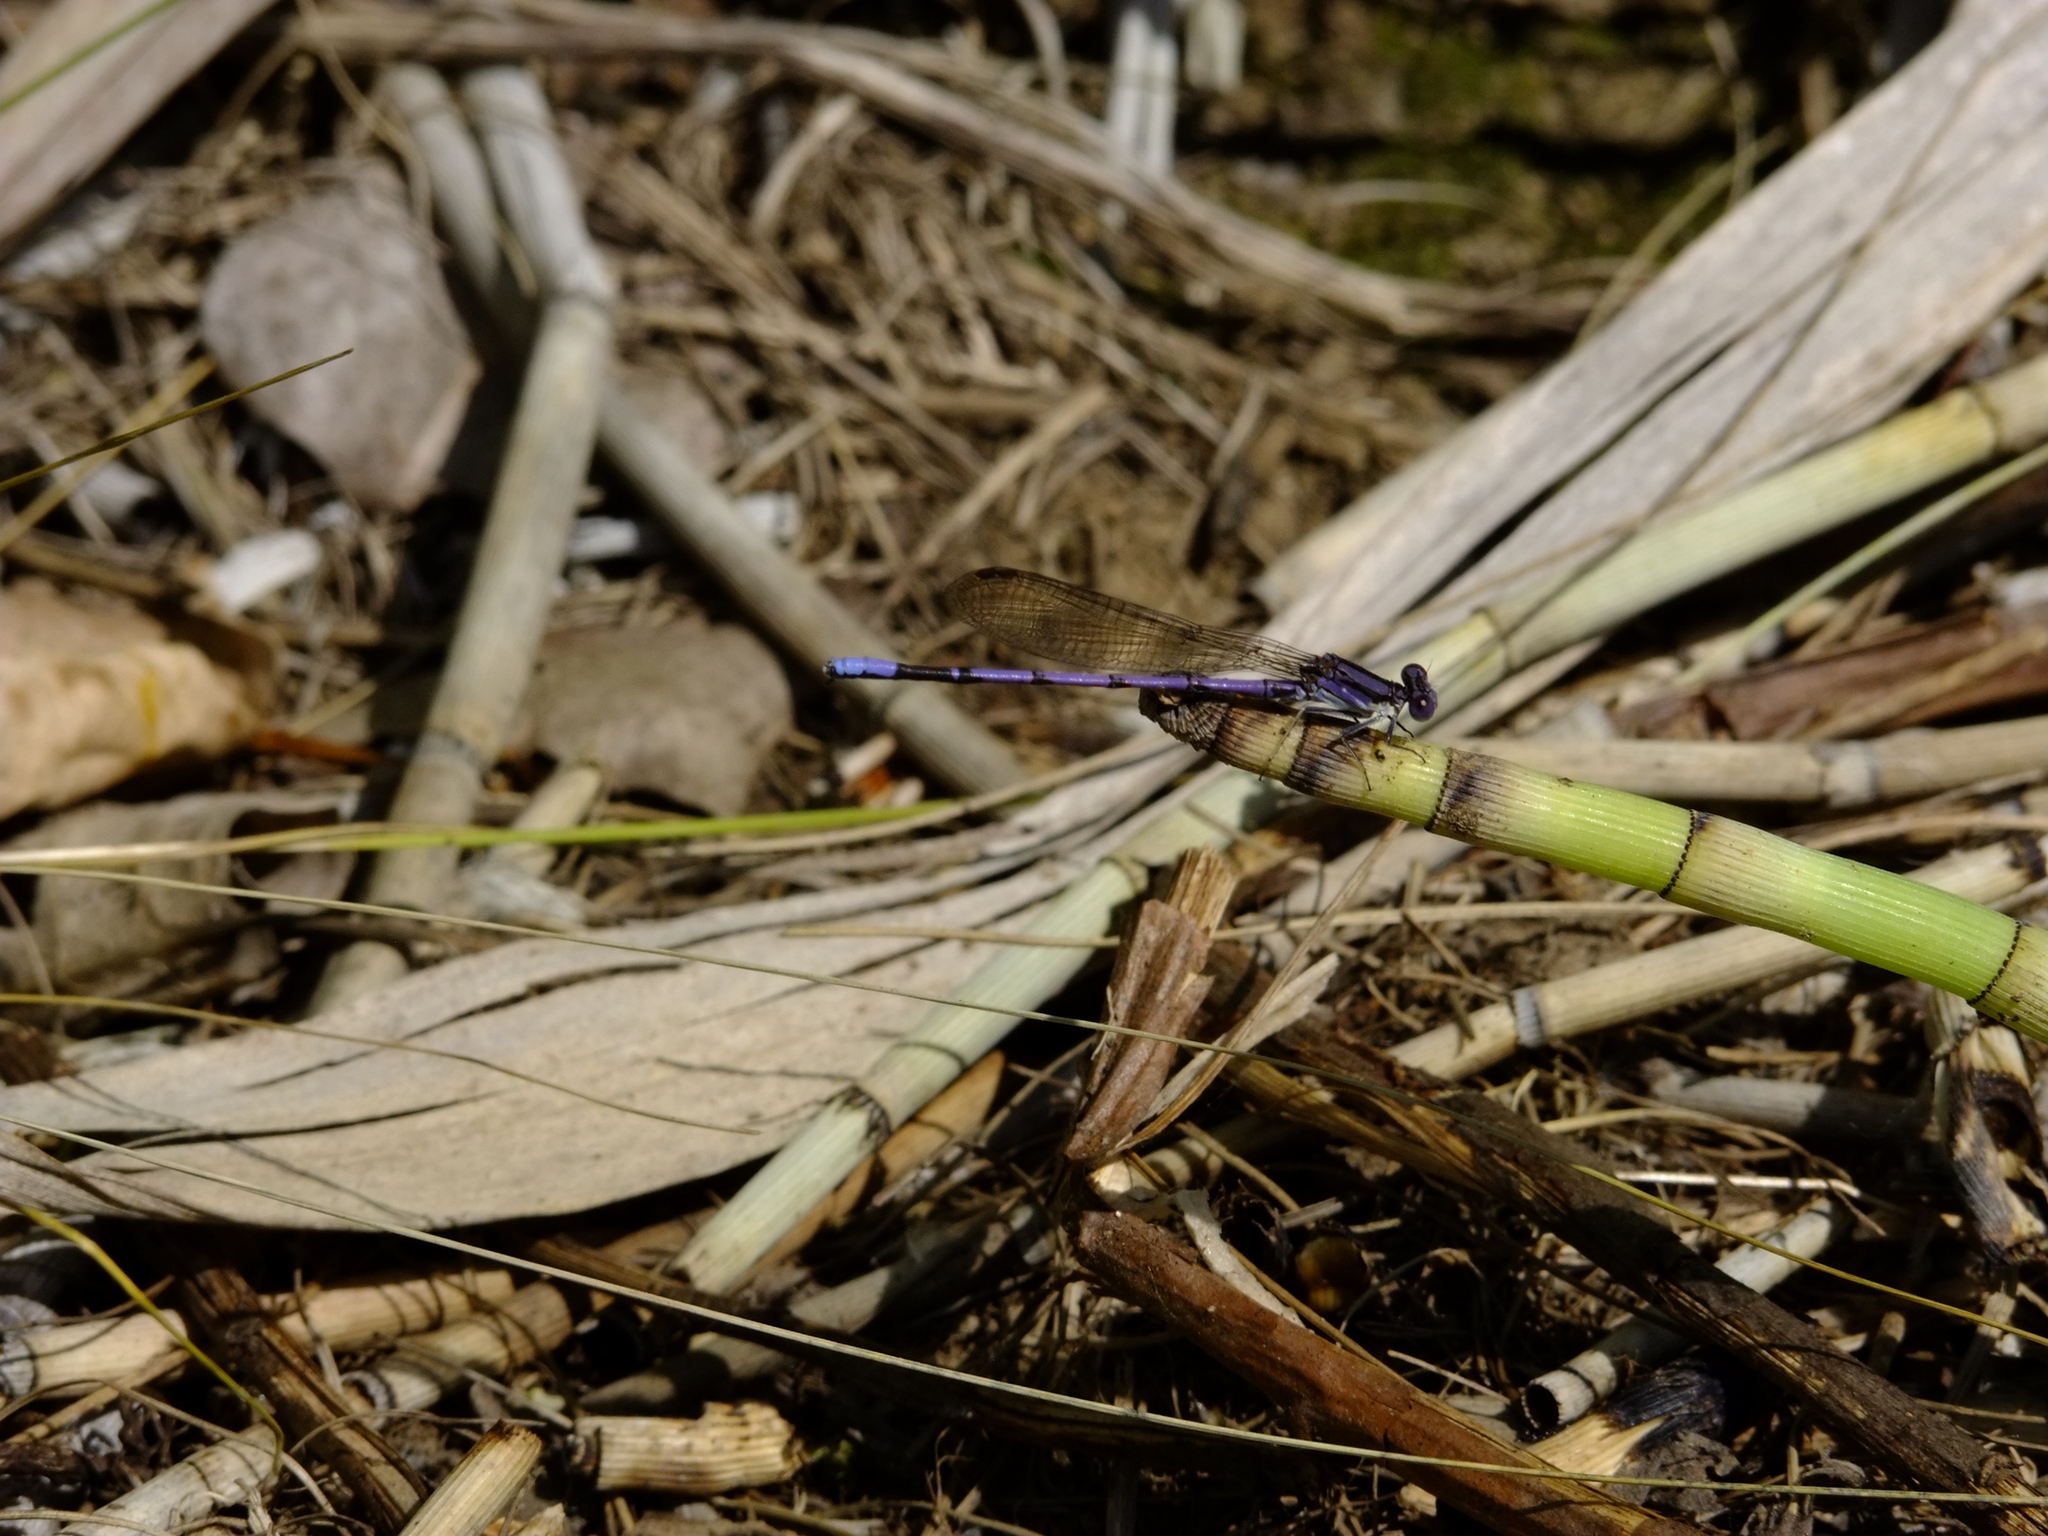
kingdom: Animalia
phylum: Arthropoda
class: Insecta
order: Odonata
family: Coenagrionidae
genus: Argia
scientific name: Argia fumipennis
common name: Variable dancer
